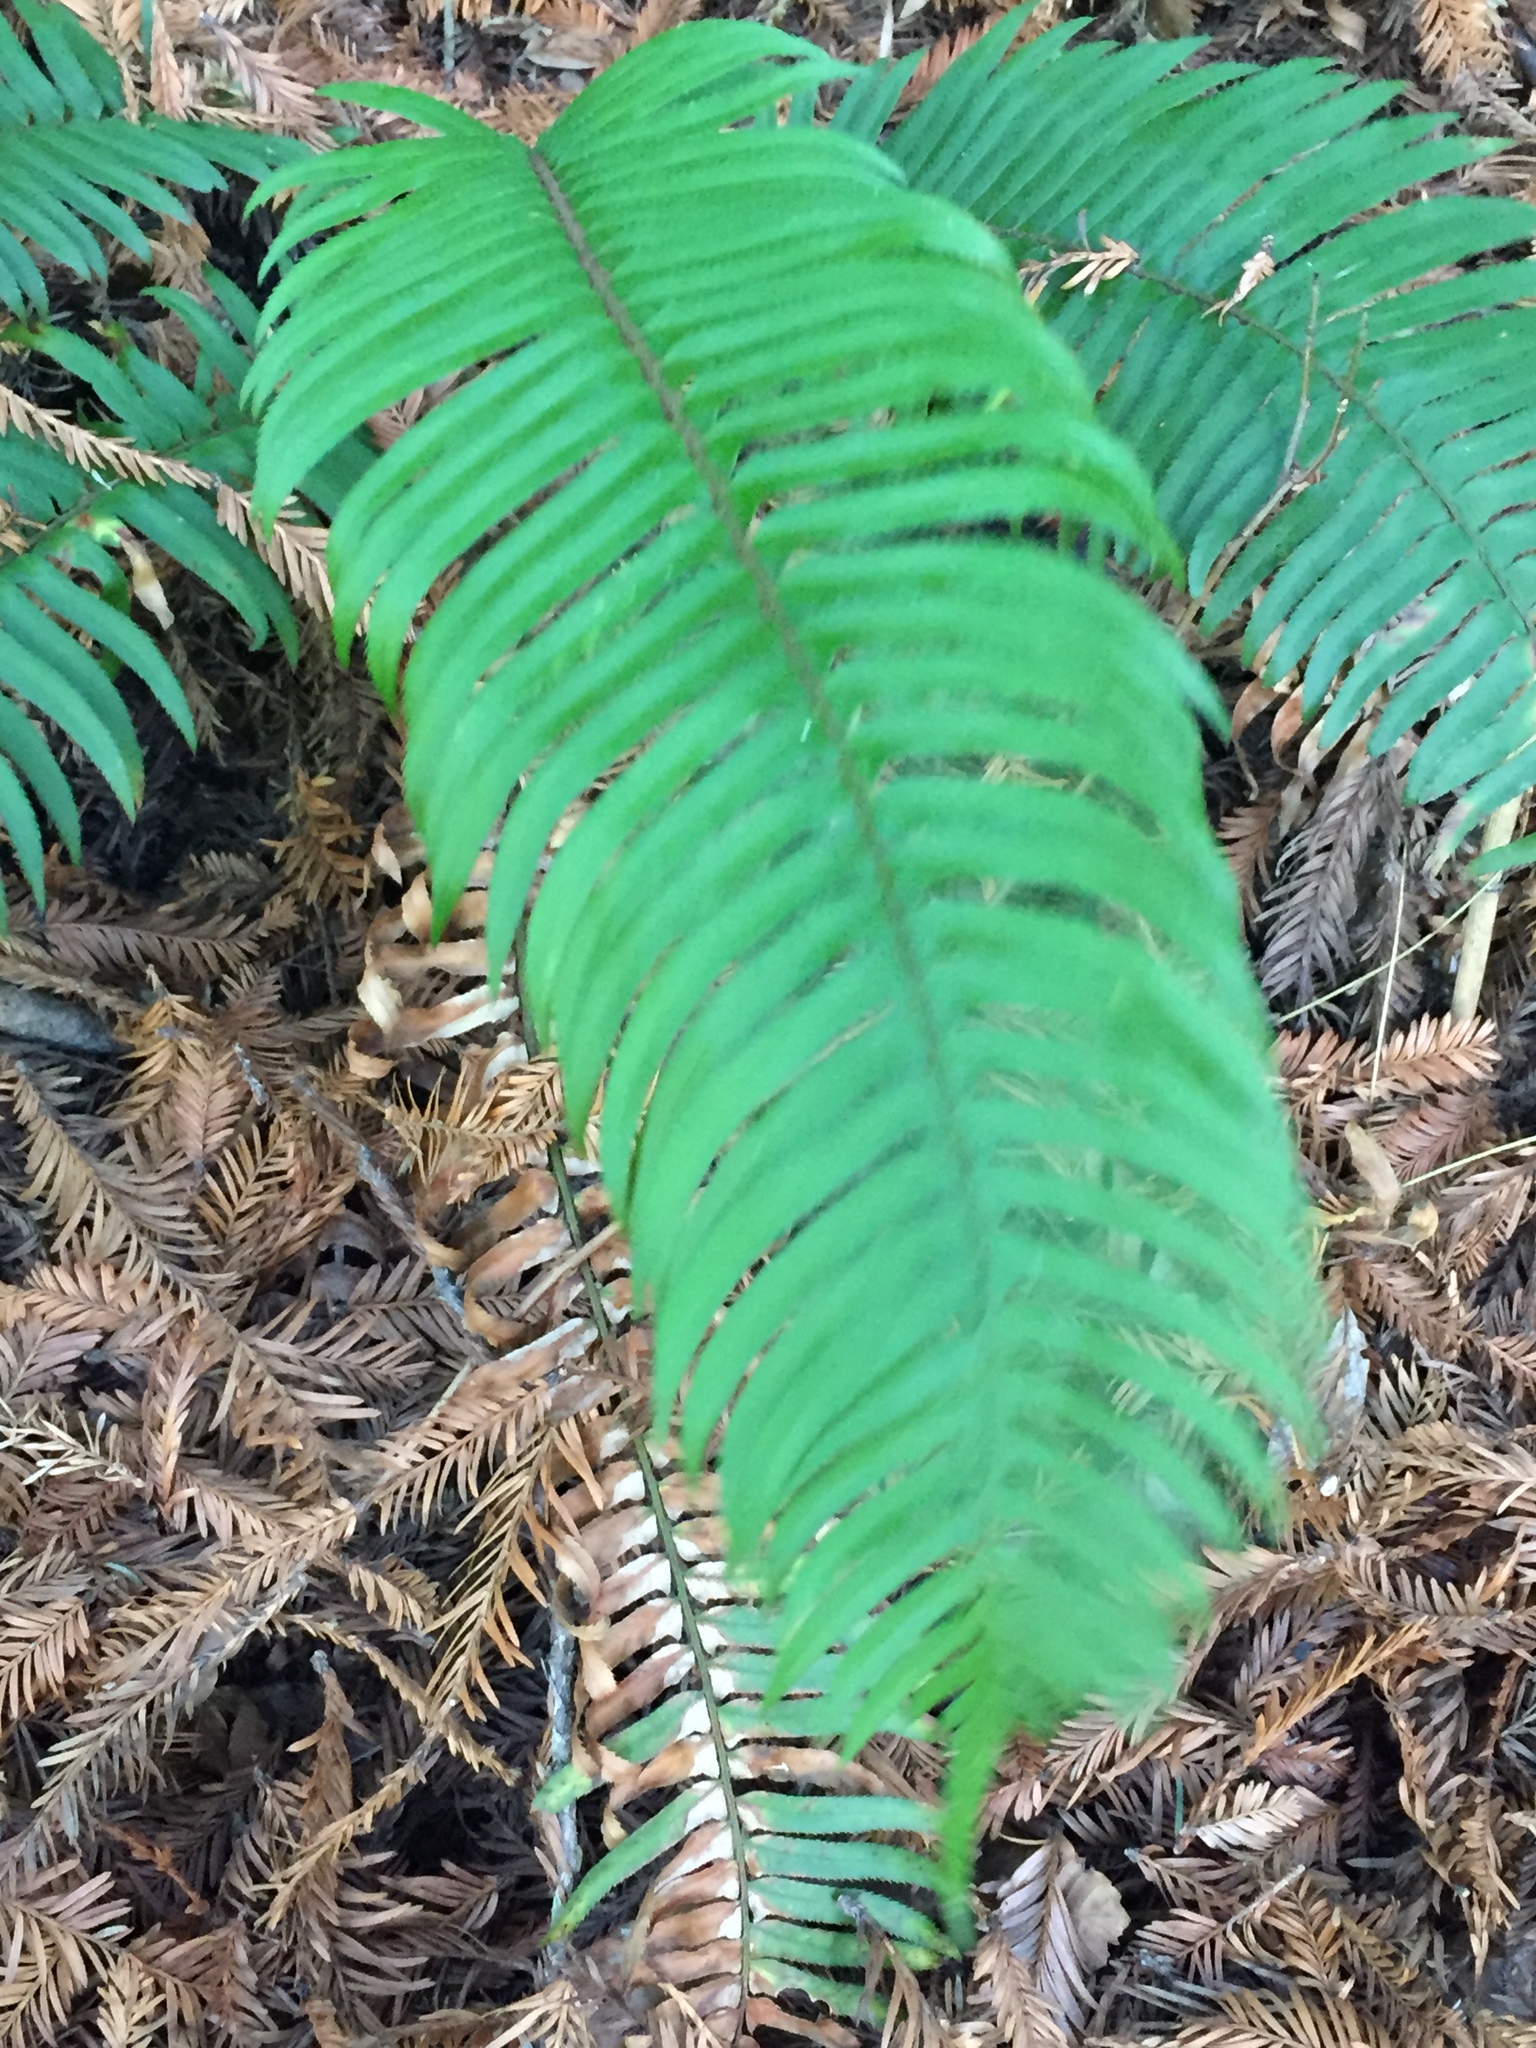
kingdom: Plantae
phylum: Tracheophyta
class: Polypodiopsida
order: Polypodiales
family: Dryopteridaceae
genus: Polystichum
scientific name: Polystichum munitum
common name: Western sword-fern
